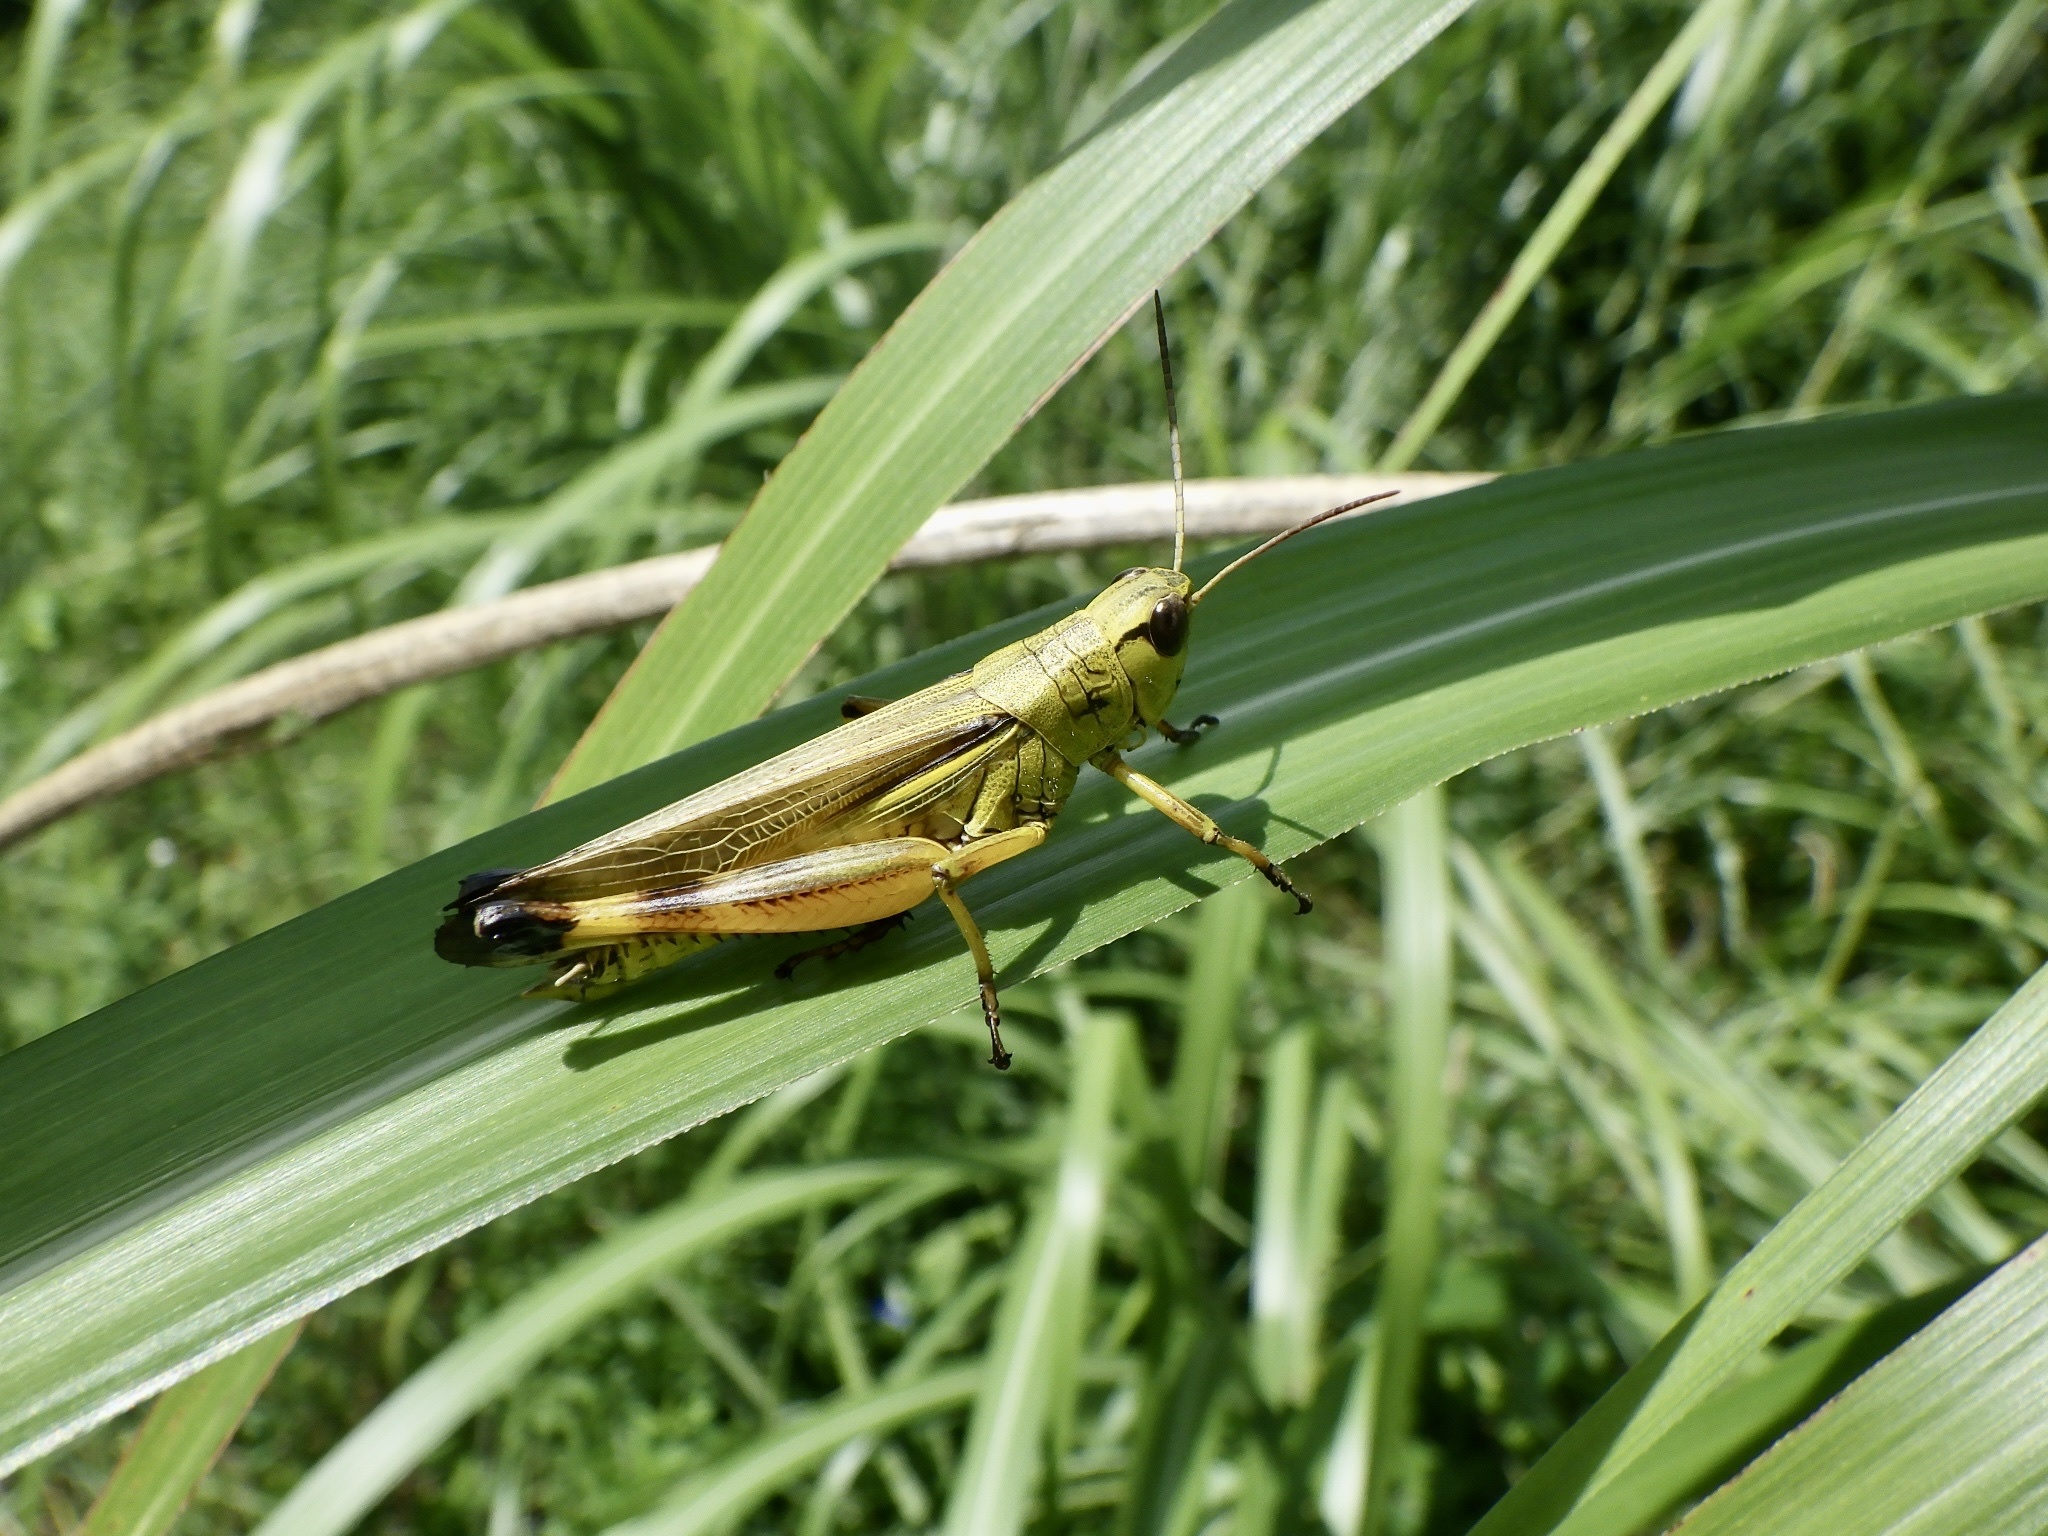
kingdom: Animalia
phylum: Arthropoda
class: Insecta
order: Orthoptera
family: Acrididae
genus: Stethophyma
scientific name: Stethophyma magister
